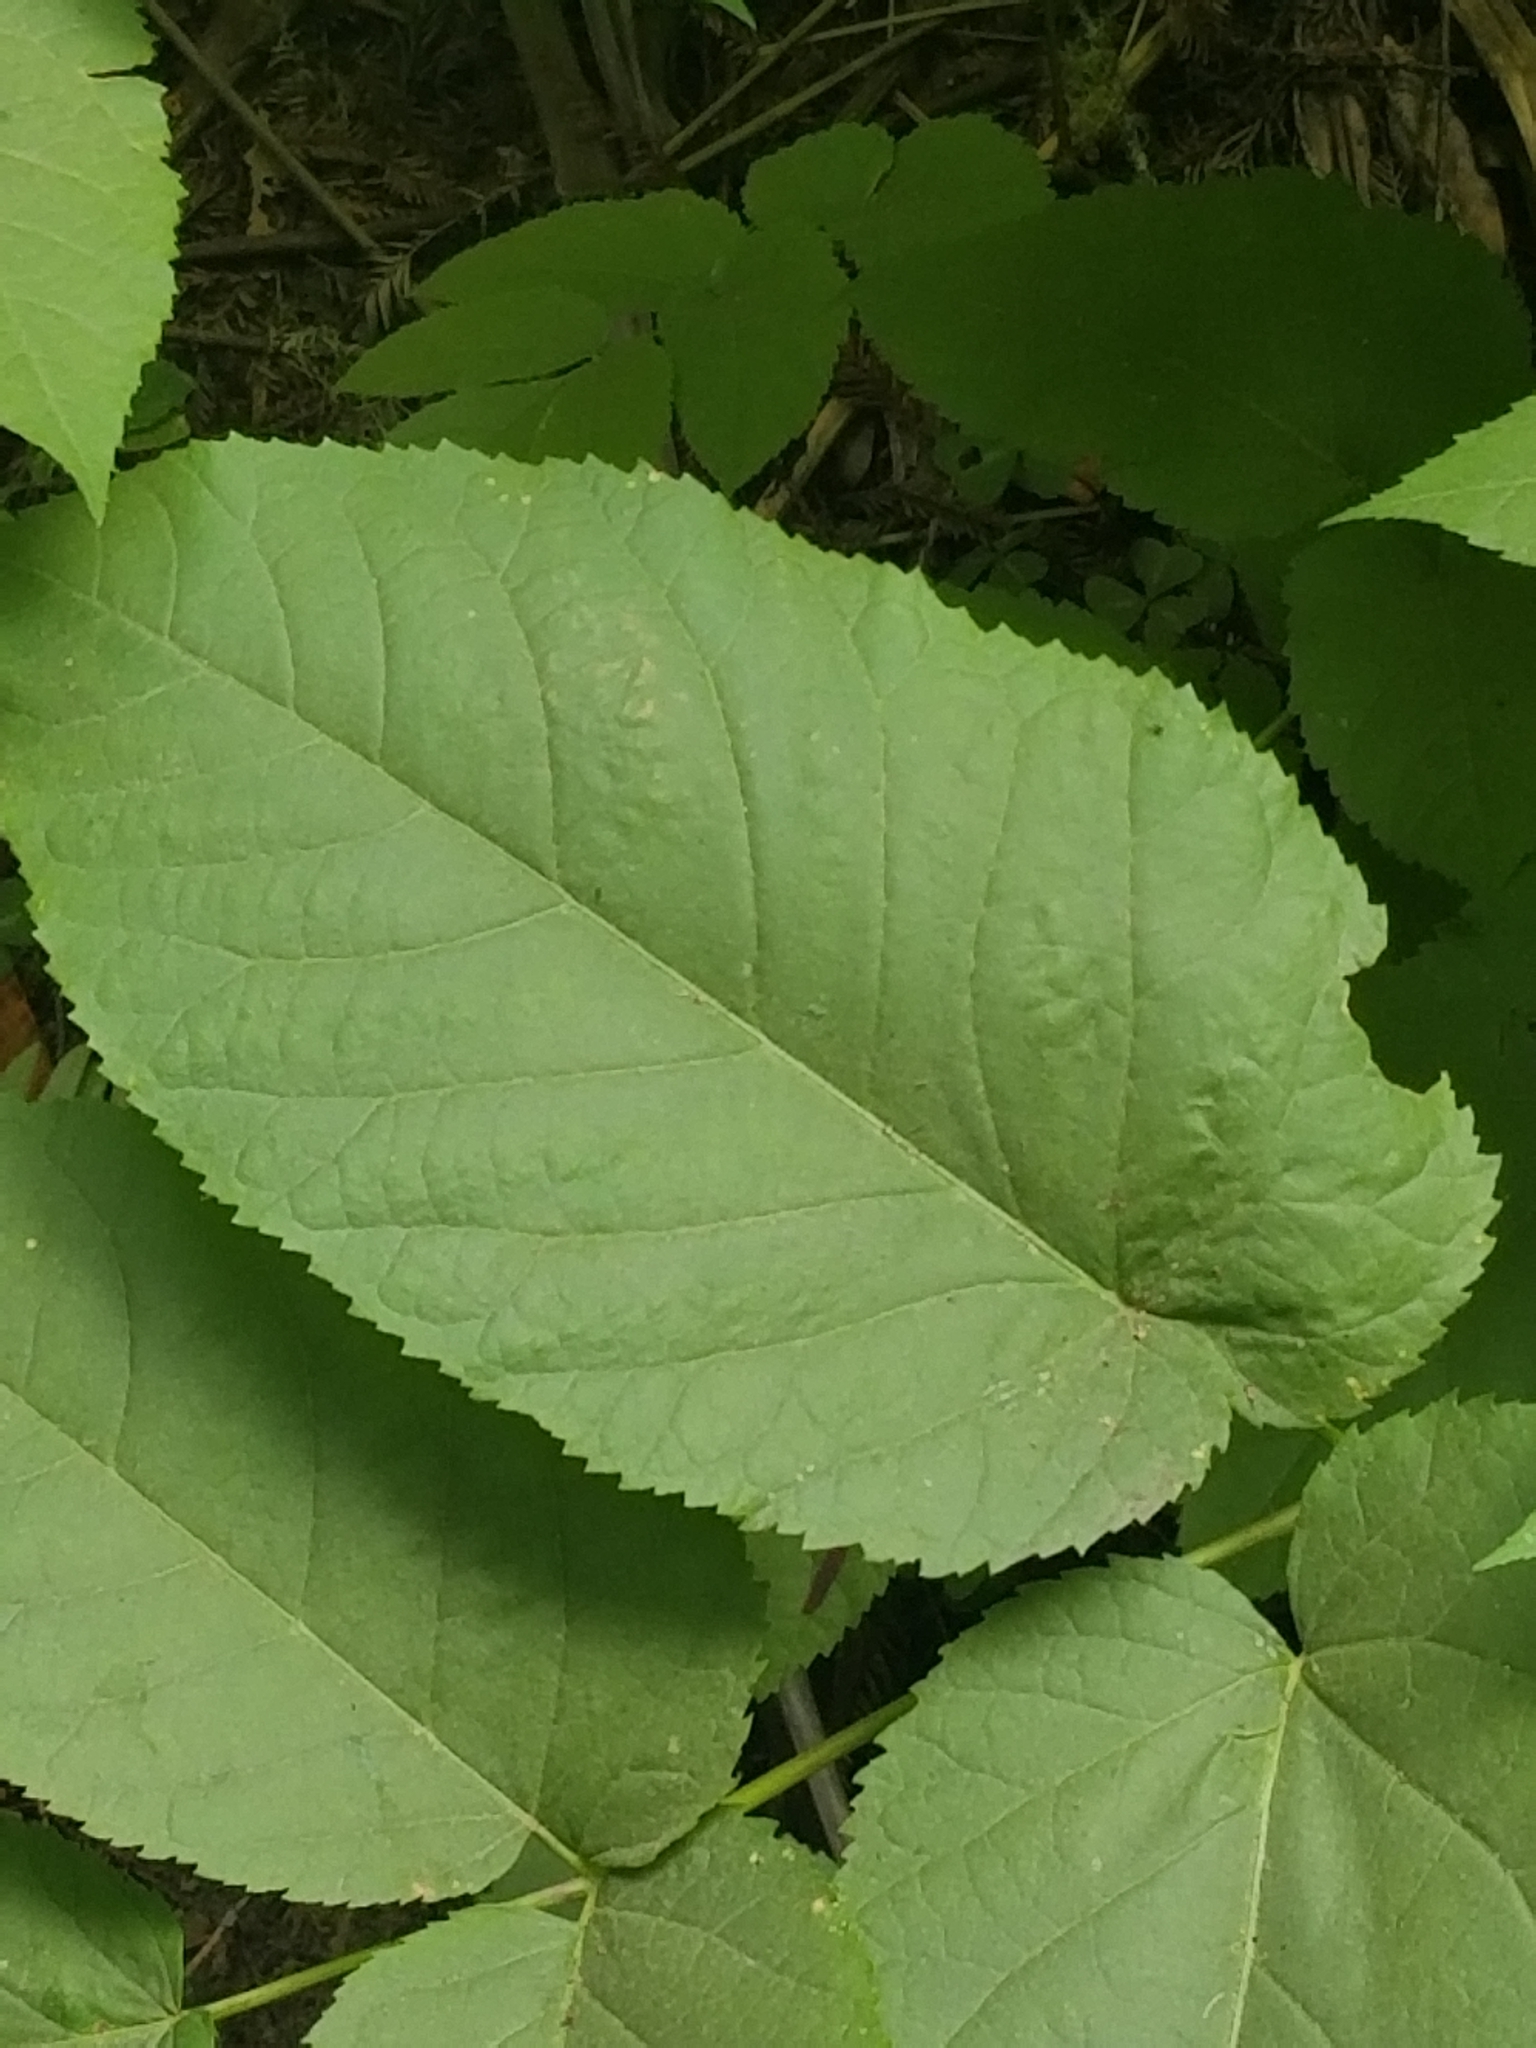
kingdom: Plantae
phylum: Tracheophyta
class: Magnoliopsida
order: Apiales
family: Araliaceae
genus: Aralia
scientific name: Aralia californica
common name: California-ginseng
